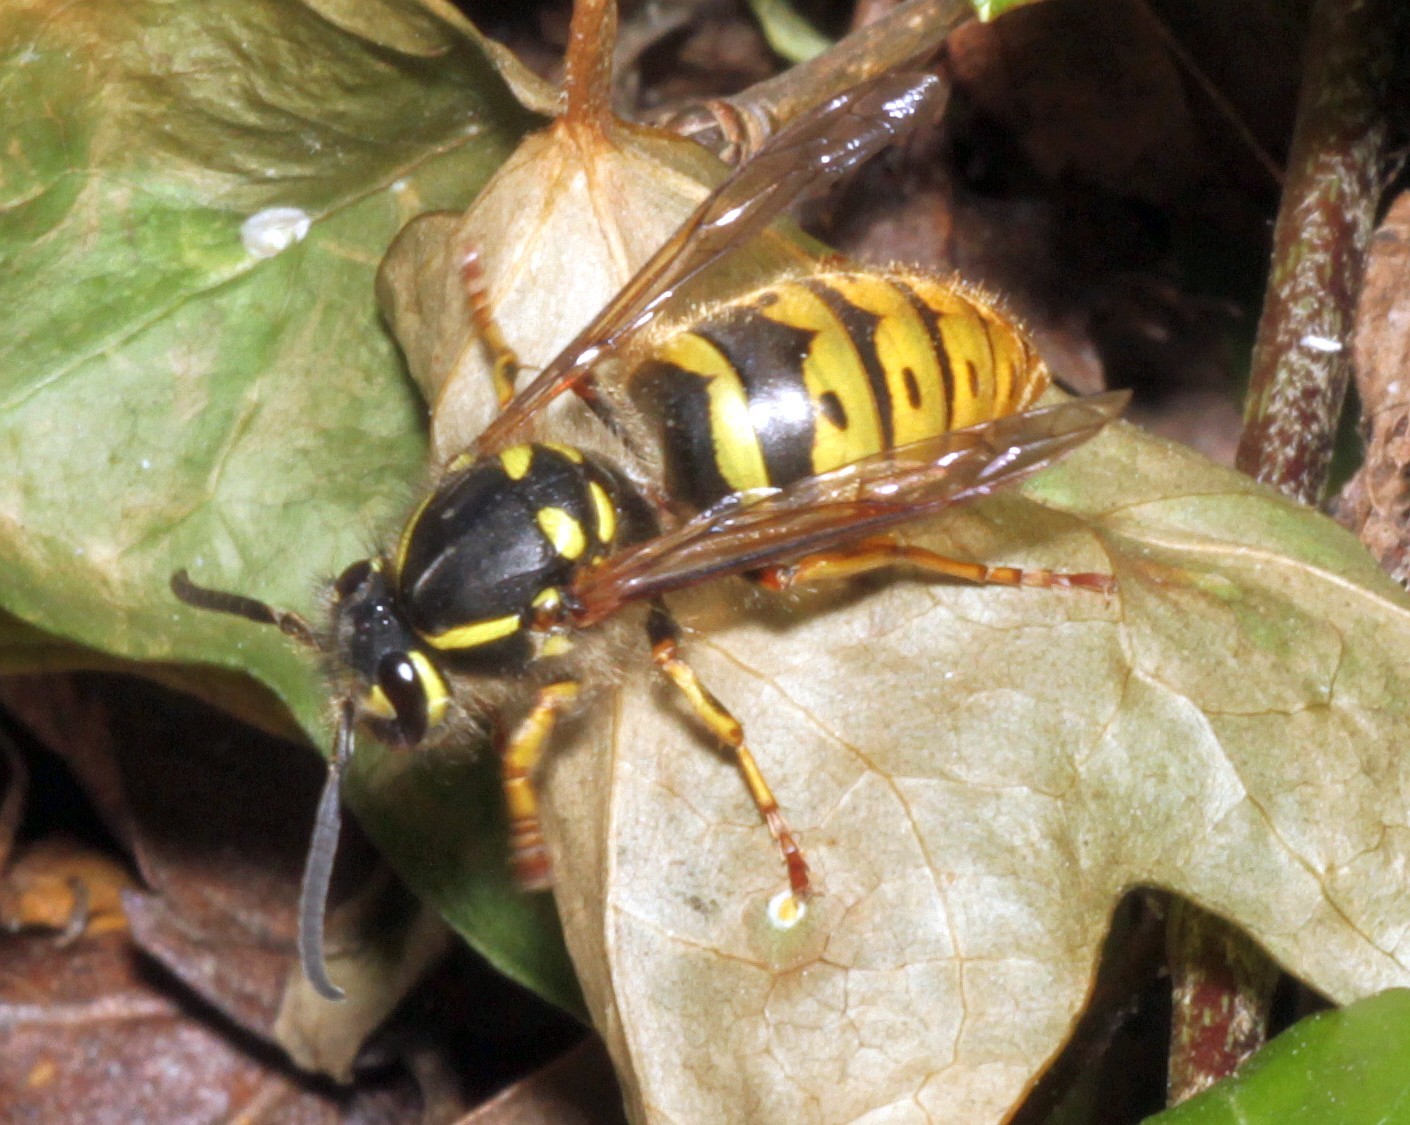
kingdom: Animalia
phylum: Arthropoda
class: Insecta
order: Hymenoptera
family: Vespidae
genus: Vespula
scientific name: Vespula vulgaris
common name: Common wasp
